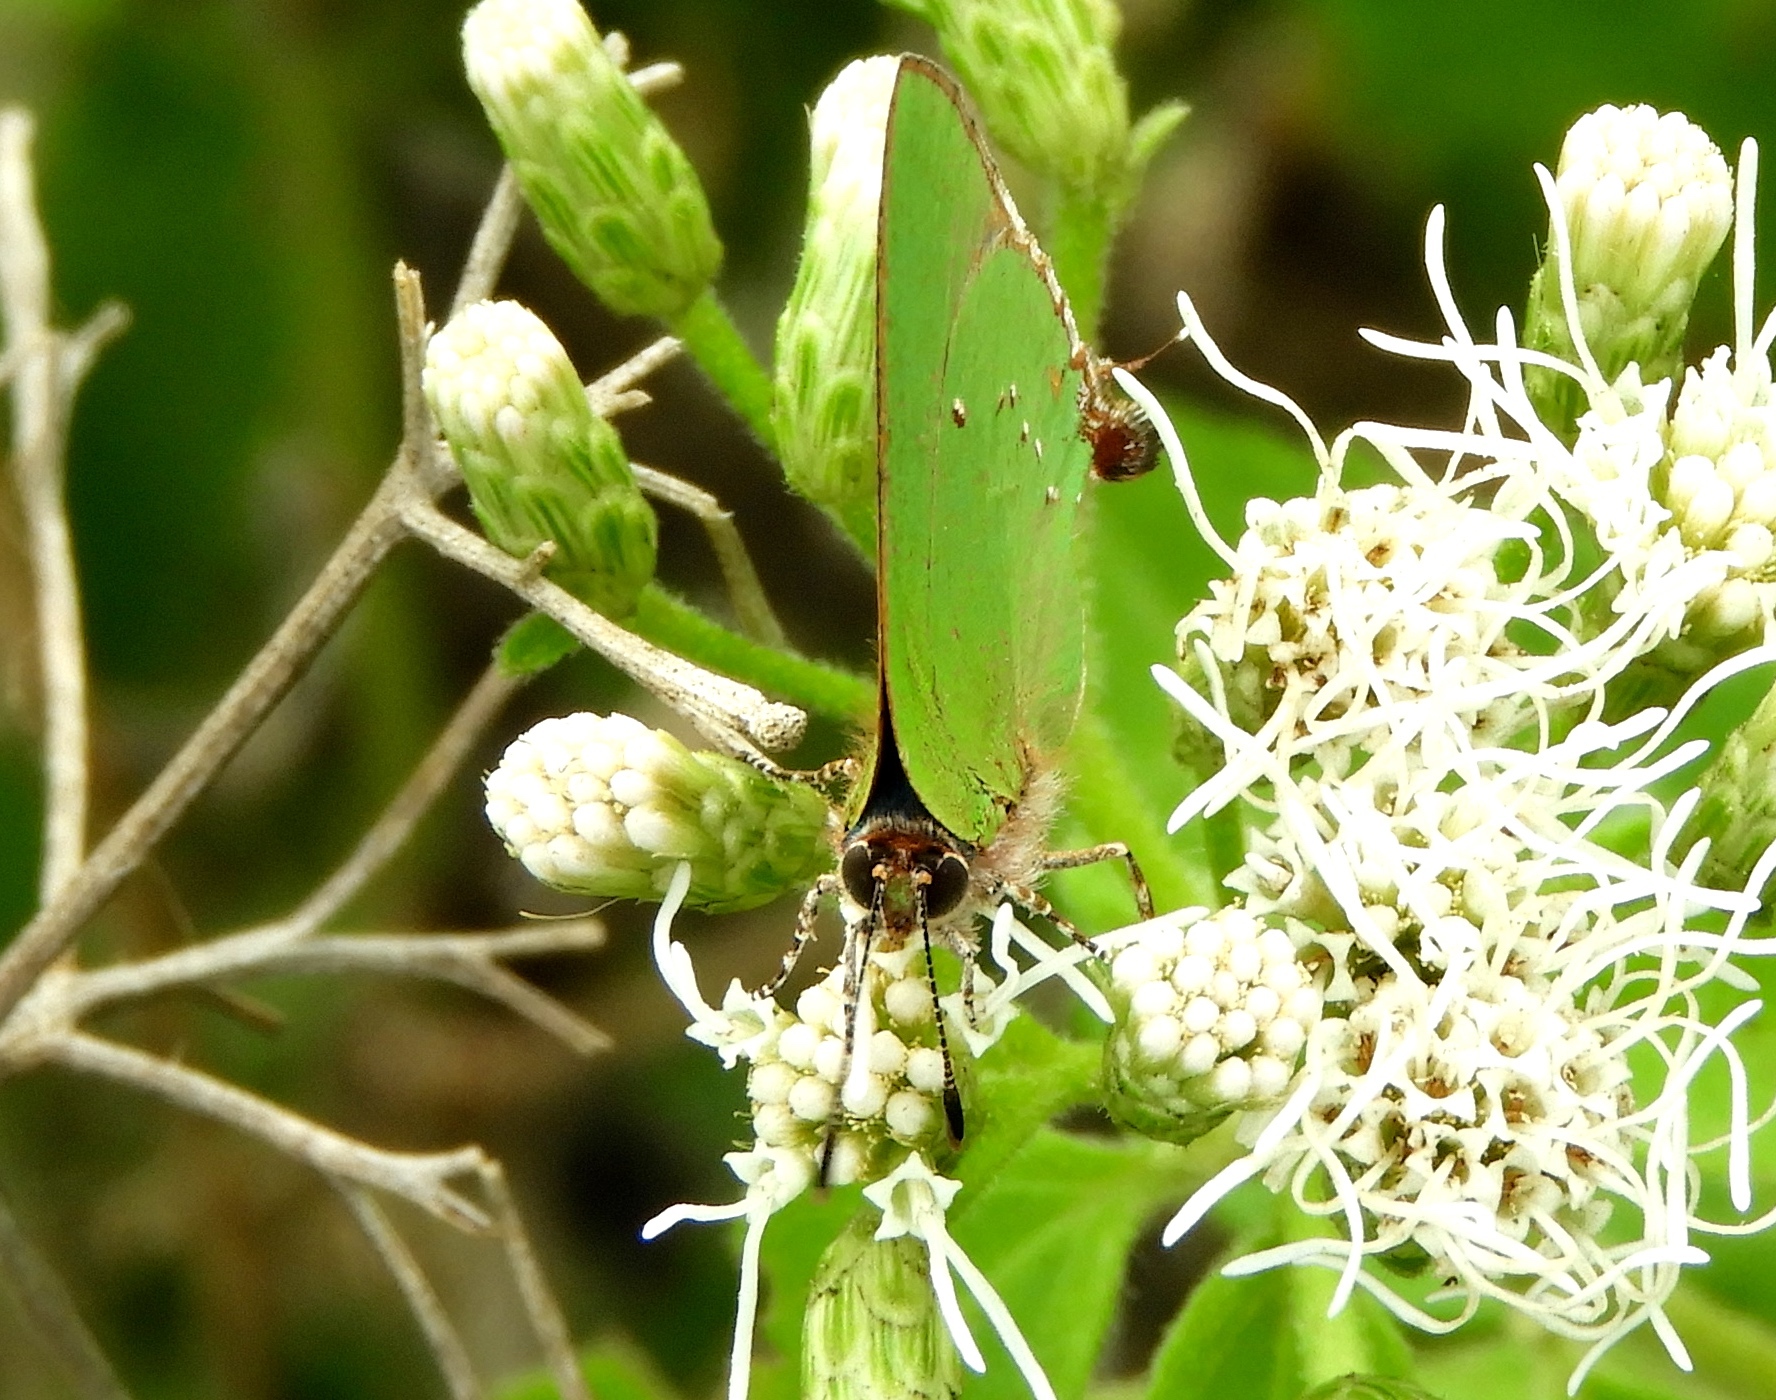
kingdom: Animalia
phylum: Arthropoda
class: Insecta
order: Lepidoptera
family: Lycaenidae
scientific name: Lycaenidae
